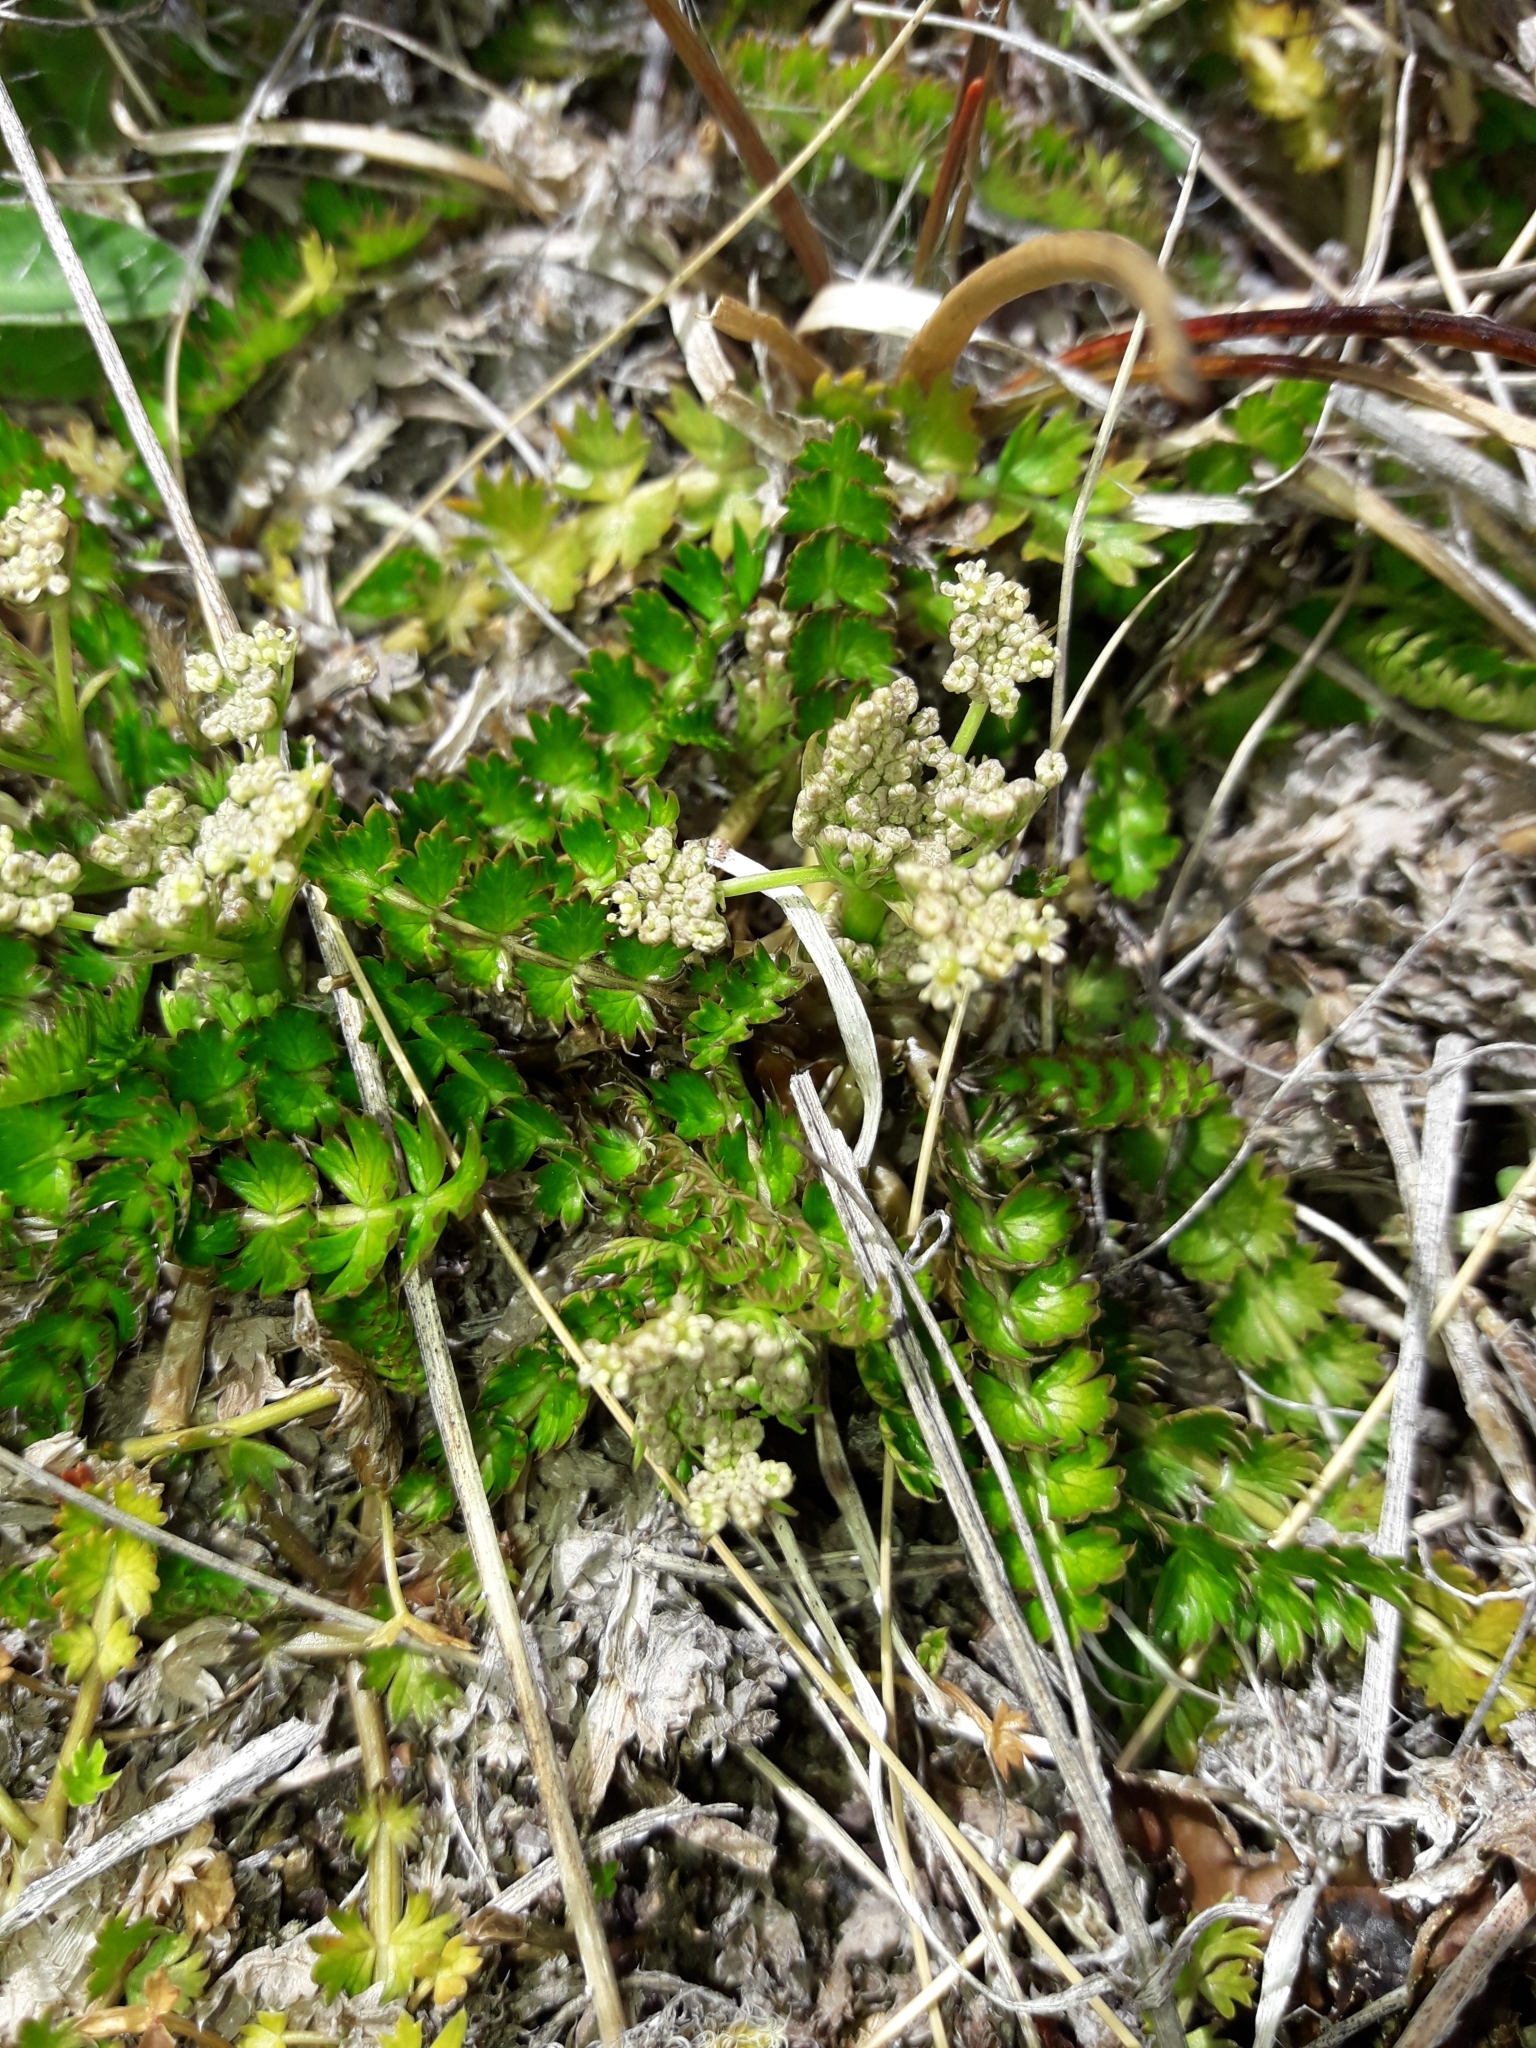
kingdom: Plantae
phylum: Tracheophyta
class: Magnoliopsida
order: Apiales
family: Apiaceae
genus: Anisotome
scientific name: Anisotome aromatica
